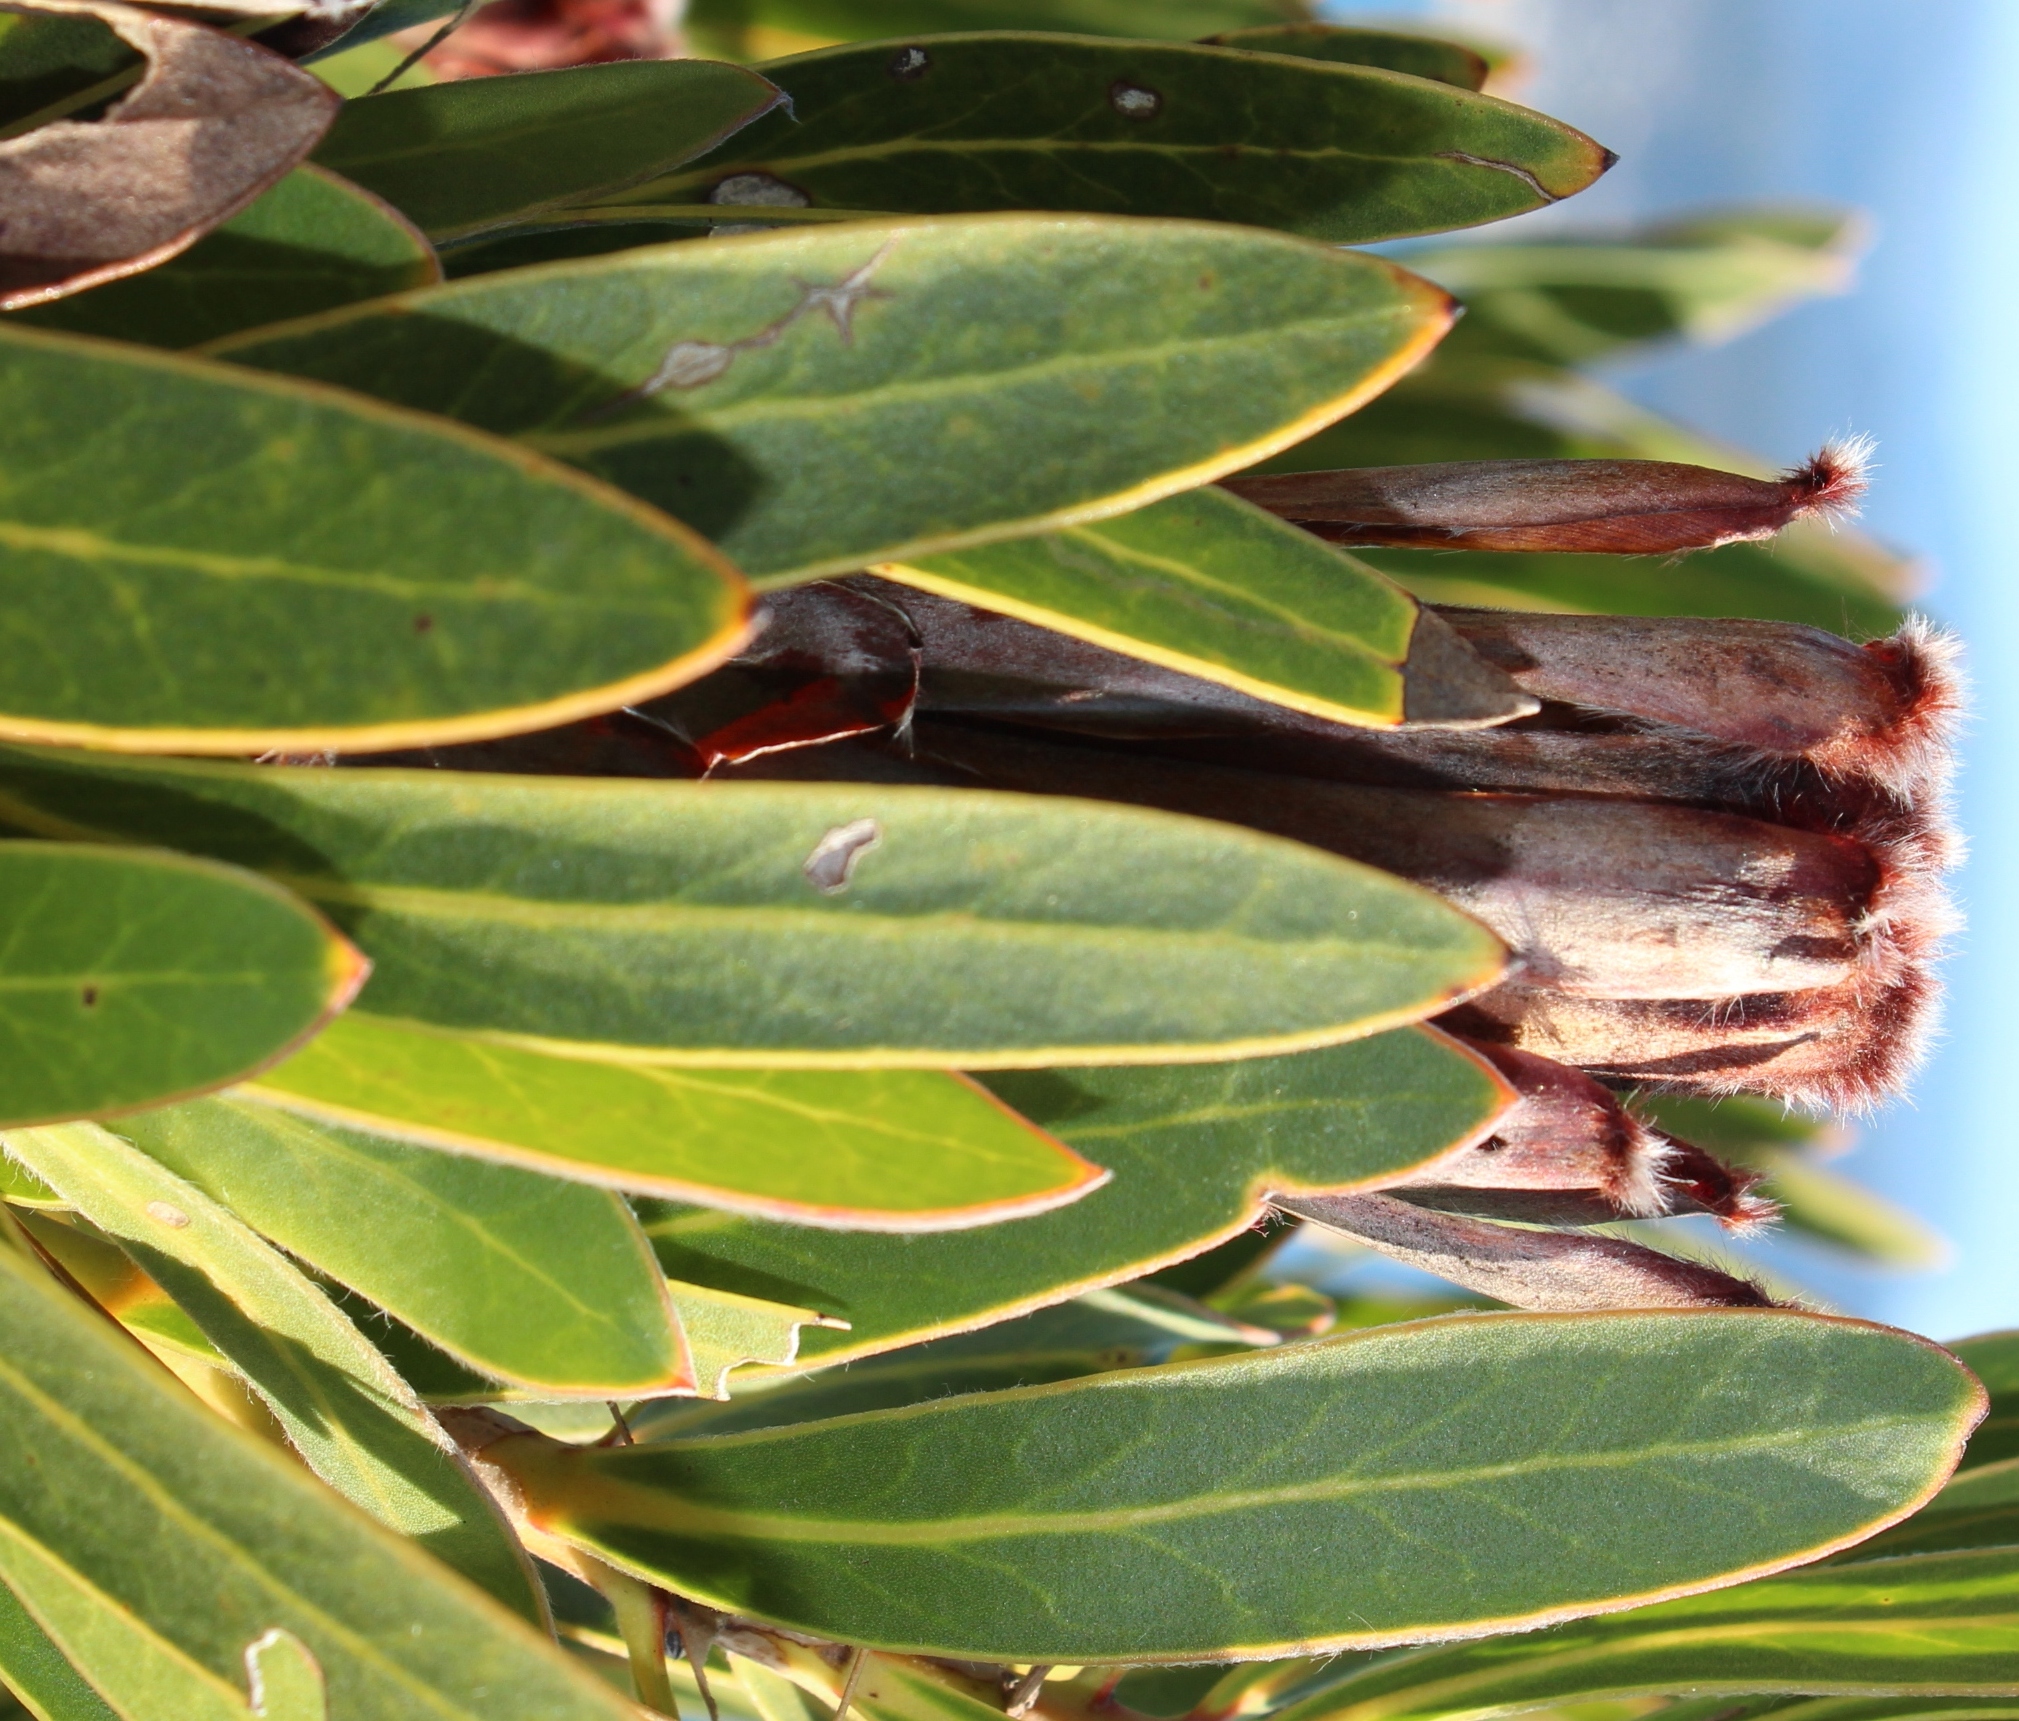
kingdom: Plantae
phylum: Tracheophyta
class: Magnoliopsida
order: Proteales
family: Proteaceae
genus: Protea
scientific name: Protea lepidocarpodendron
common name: Black-bearded protea
